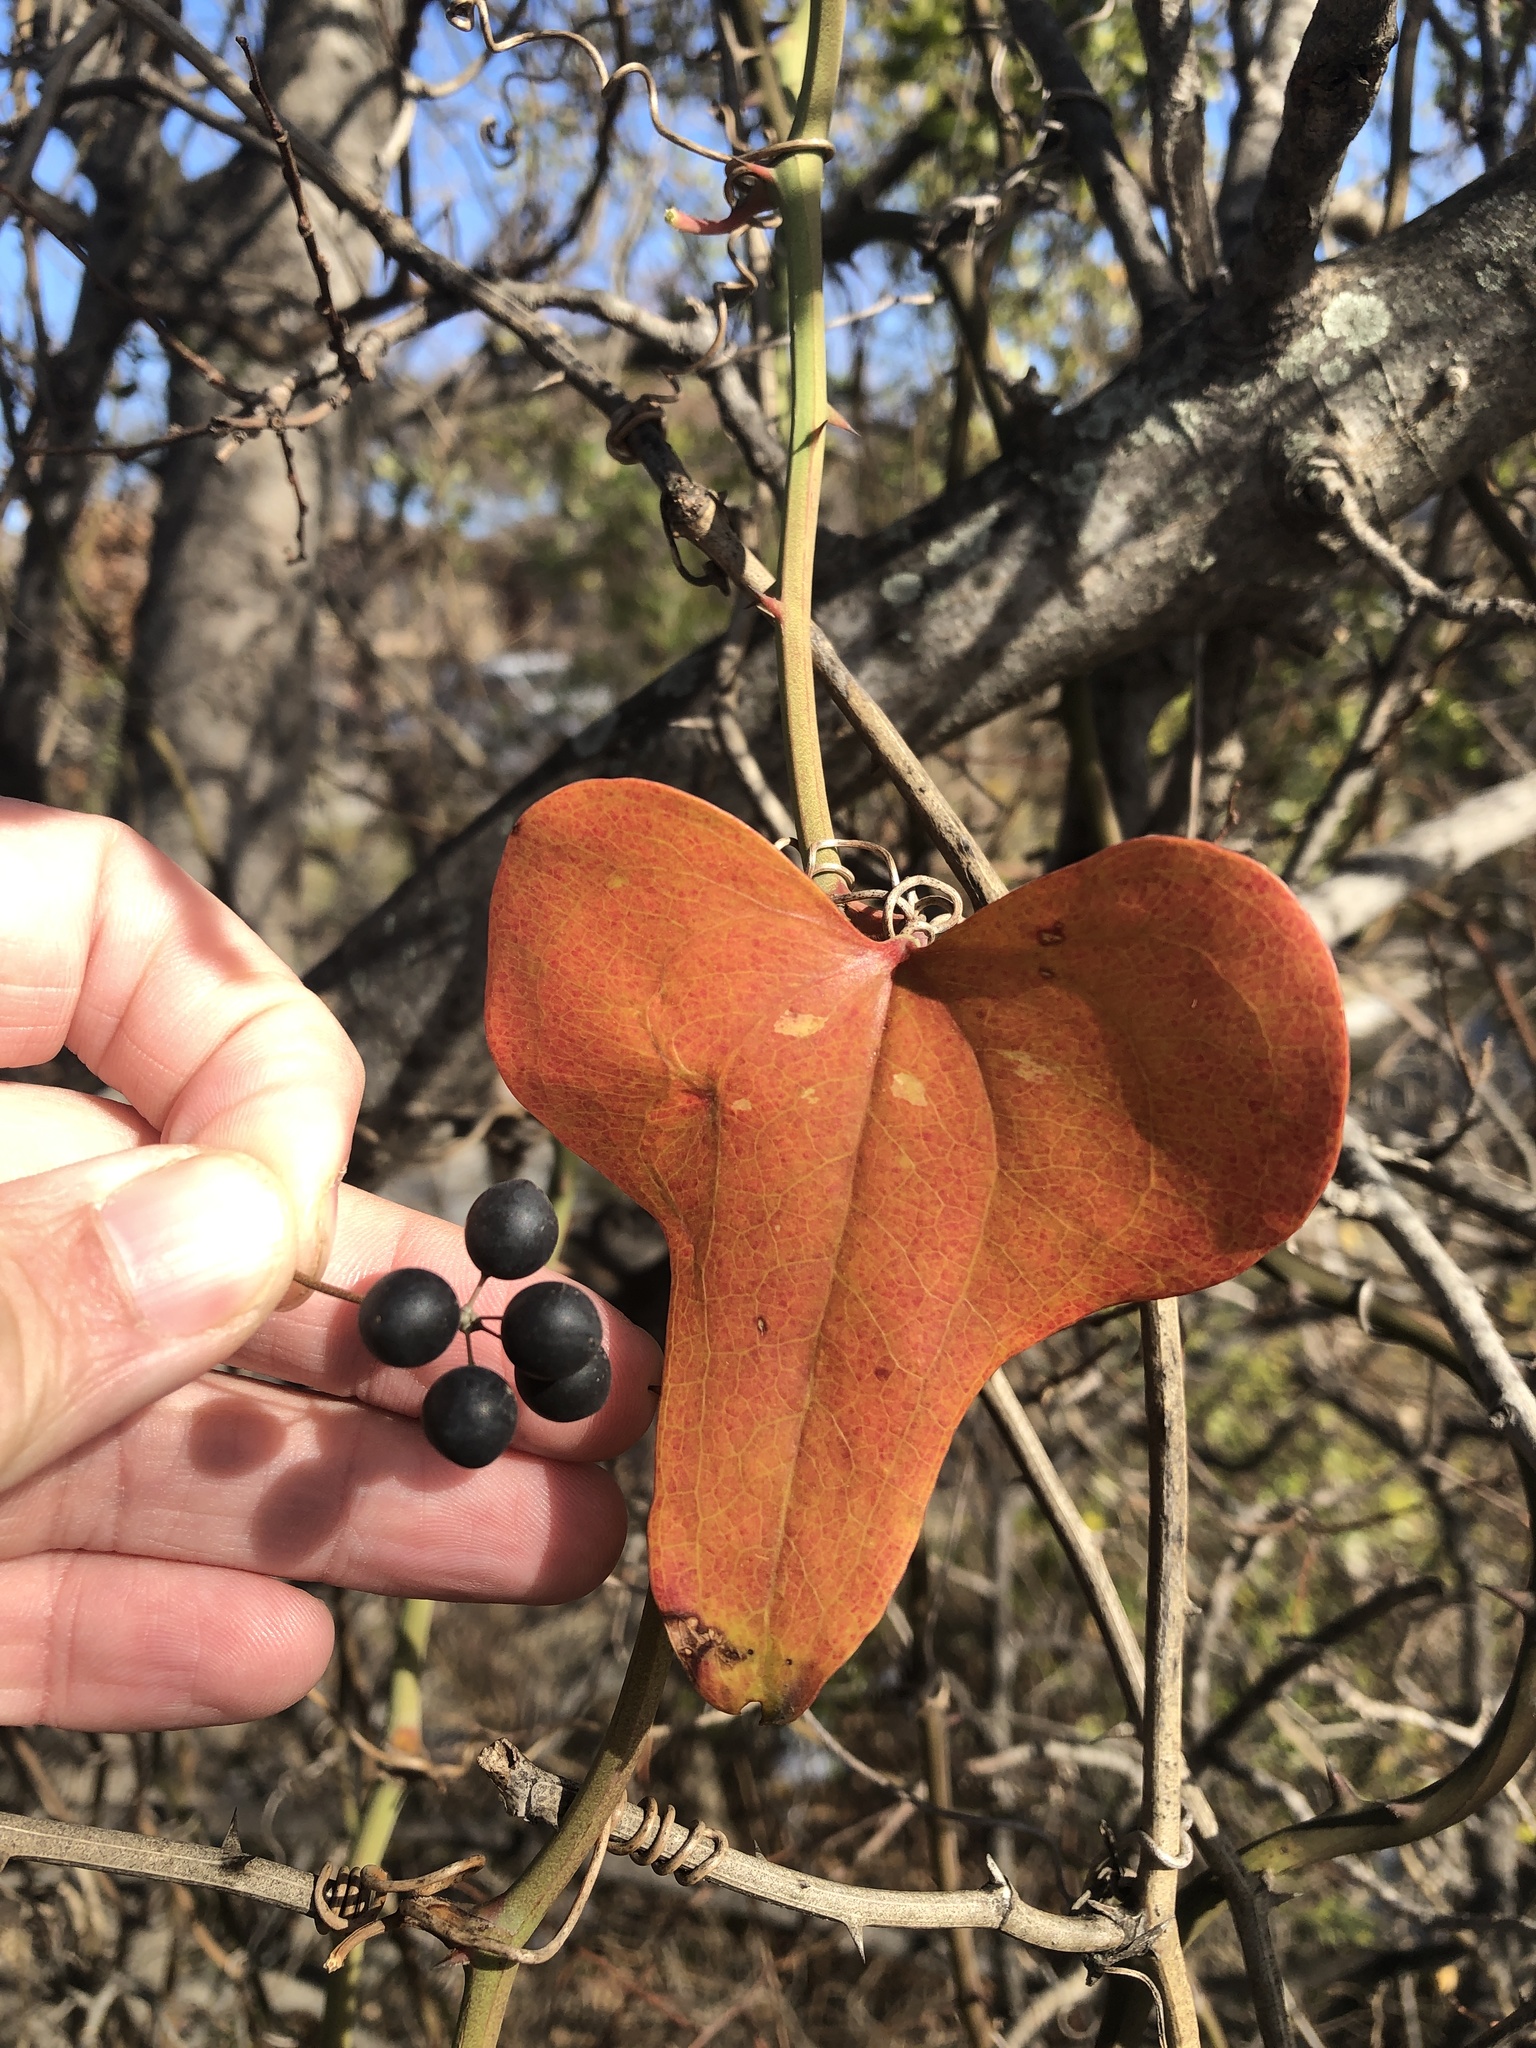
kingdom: Plantae
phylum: Tracheophyta
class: Liliopsida
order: Liliales
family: Smilacaceae
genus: Smilax
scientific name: Smilax bona-nox
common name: Catbrier
